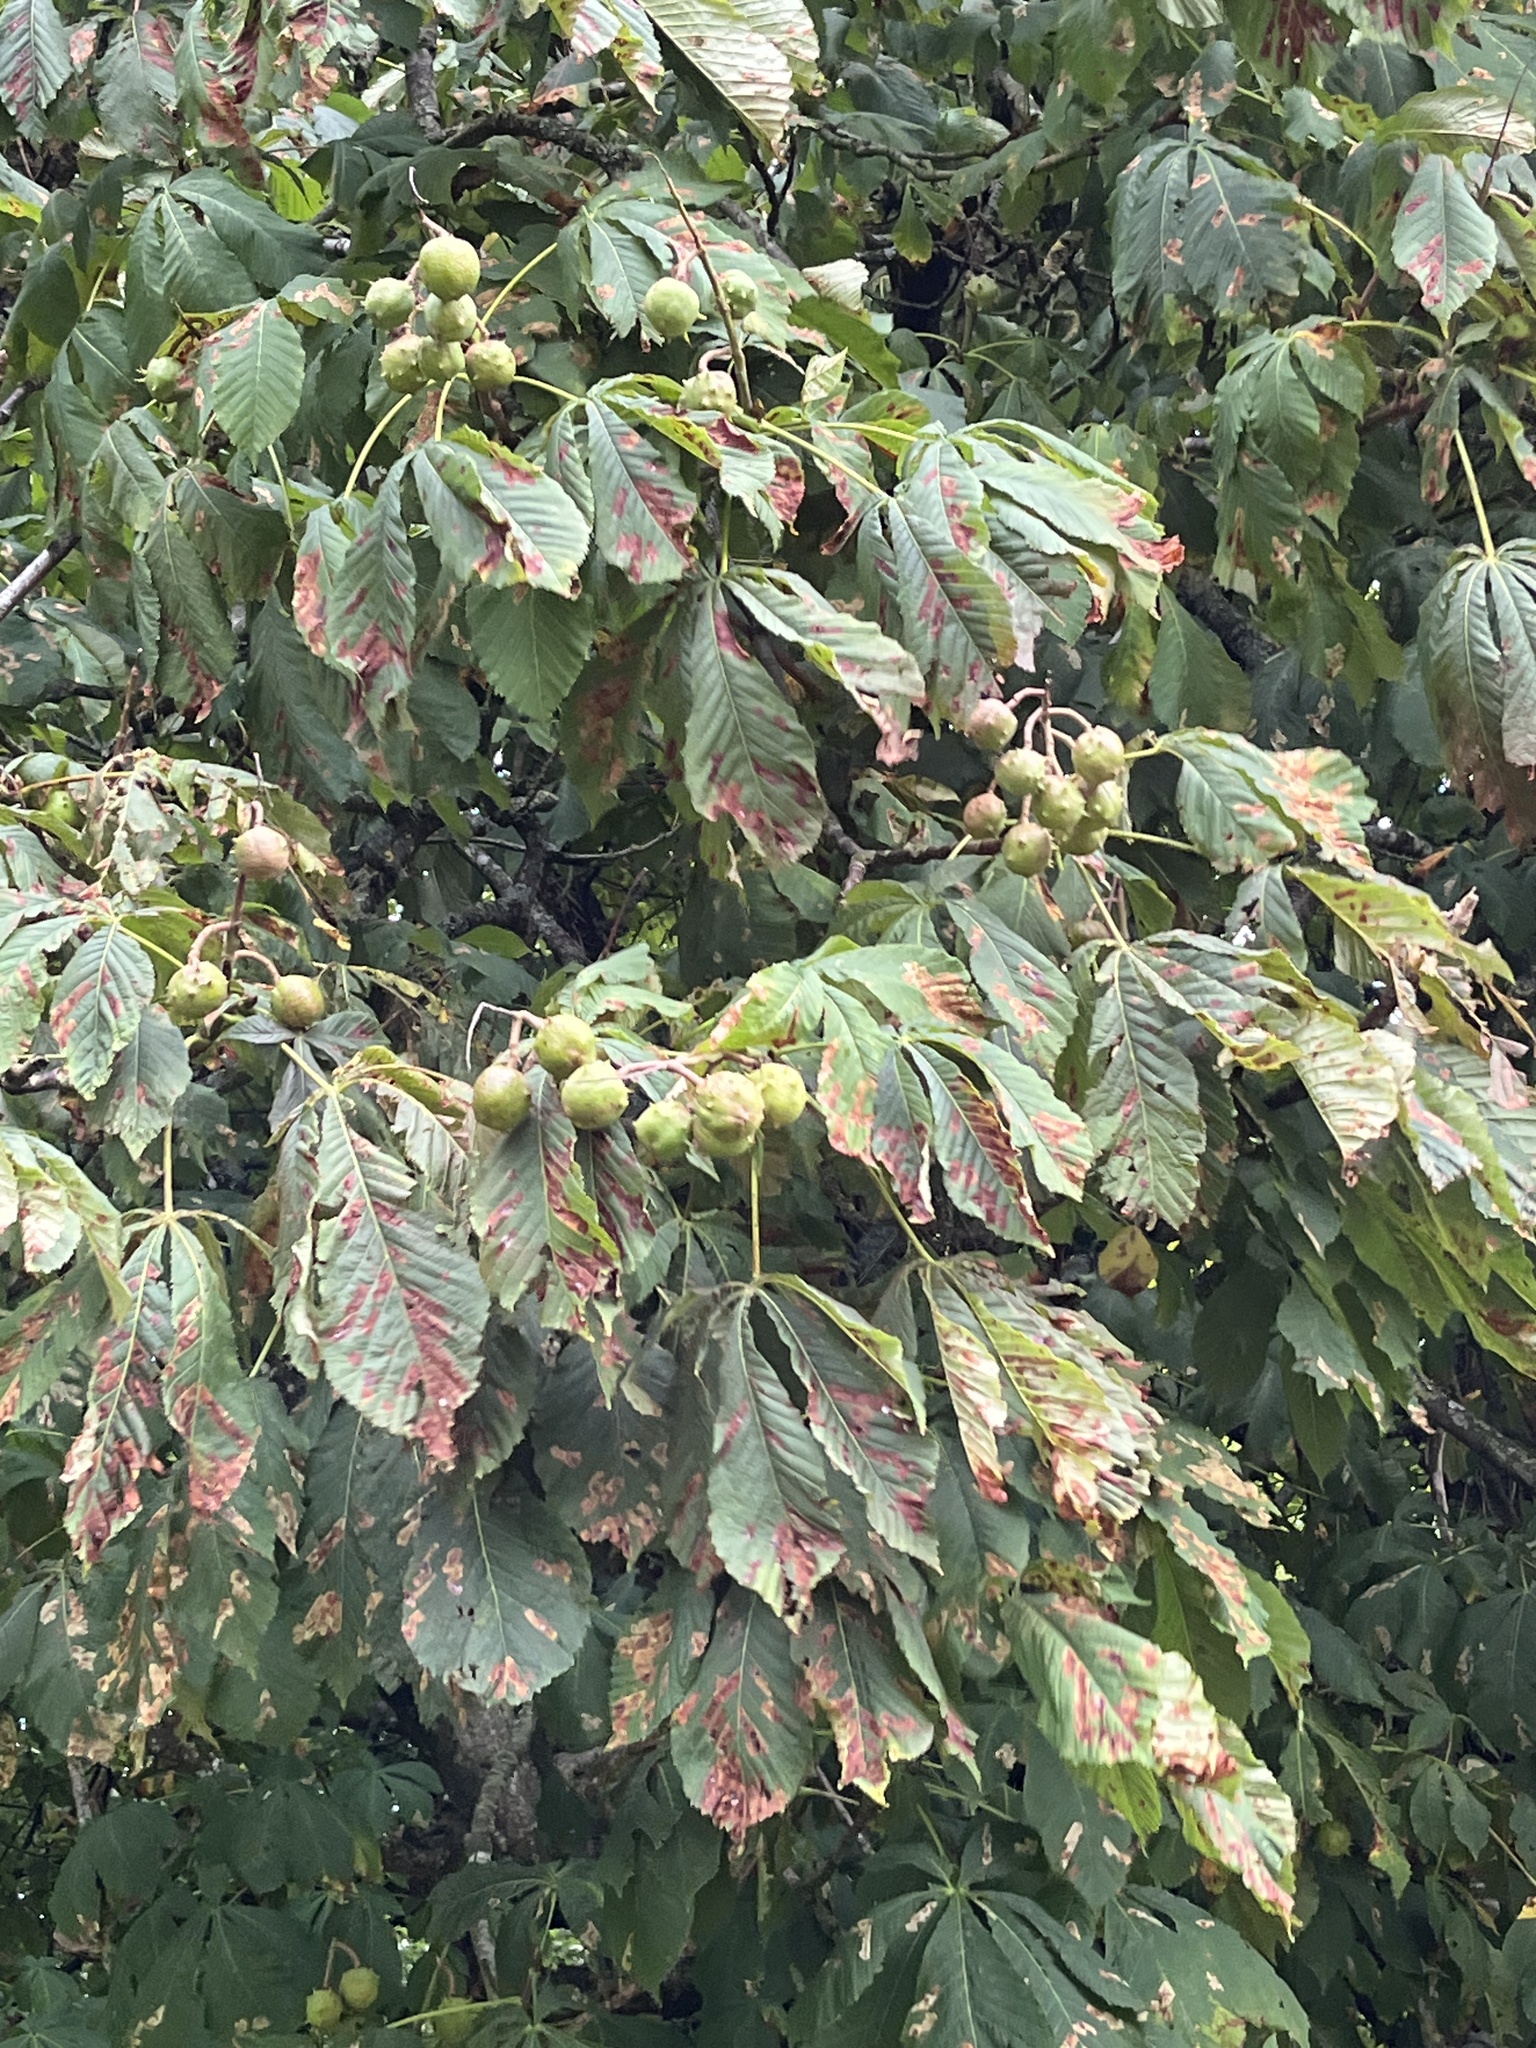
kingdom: Plantae
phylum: Tracheophyta
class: Magnoliopsida
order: Sapindales
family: Sapindaceae
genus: Aesculus
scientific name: Aesculus hippocastanum
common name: Horse-chestnut
